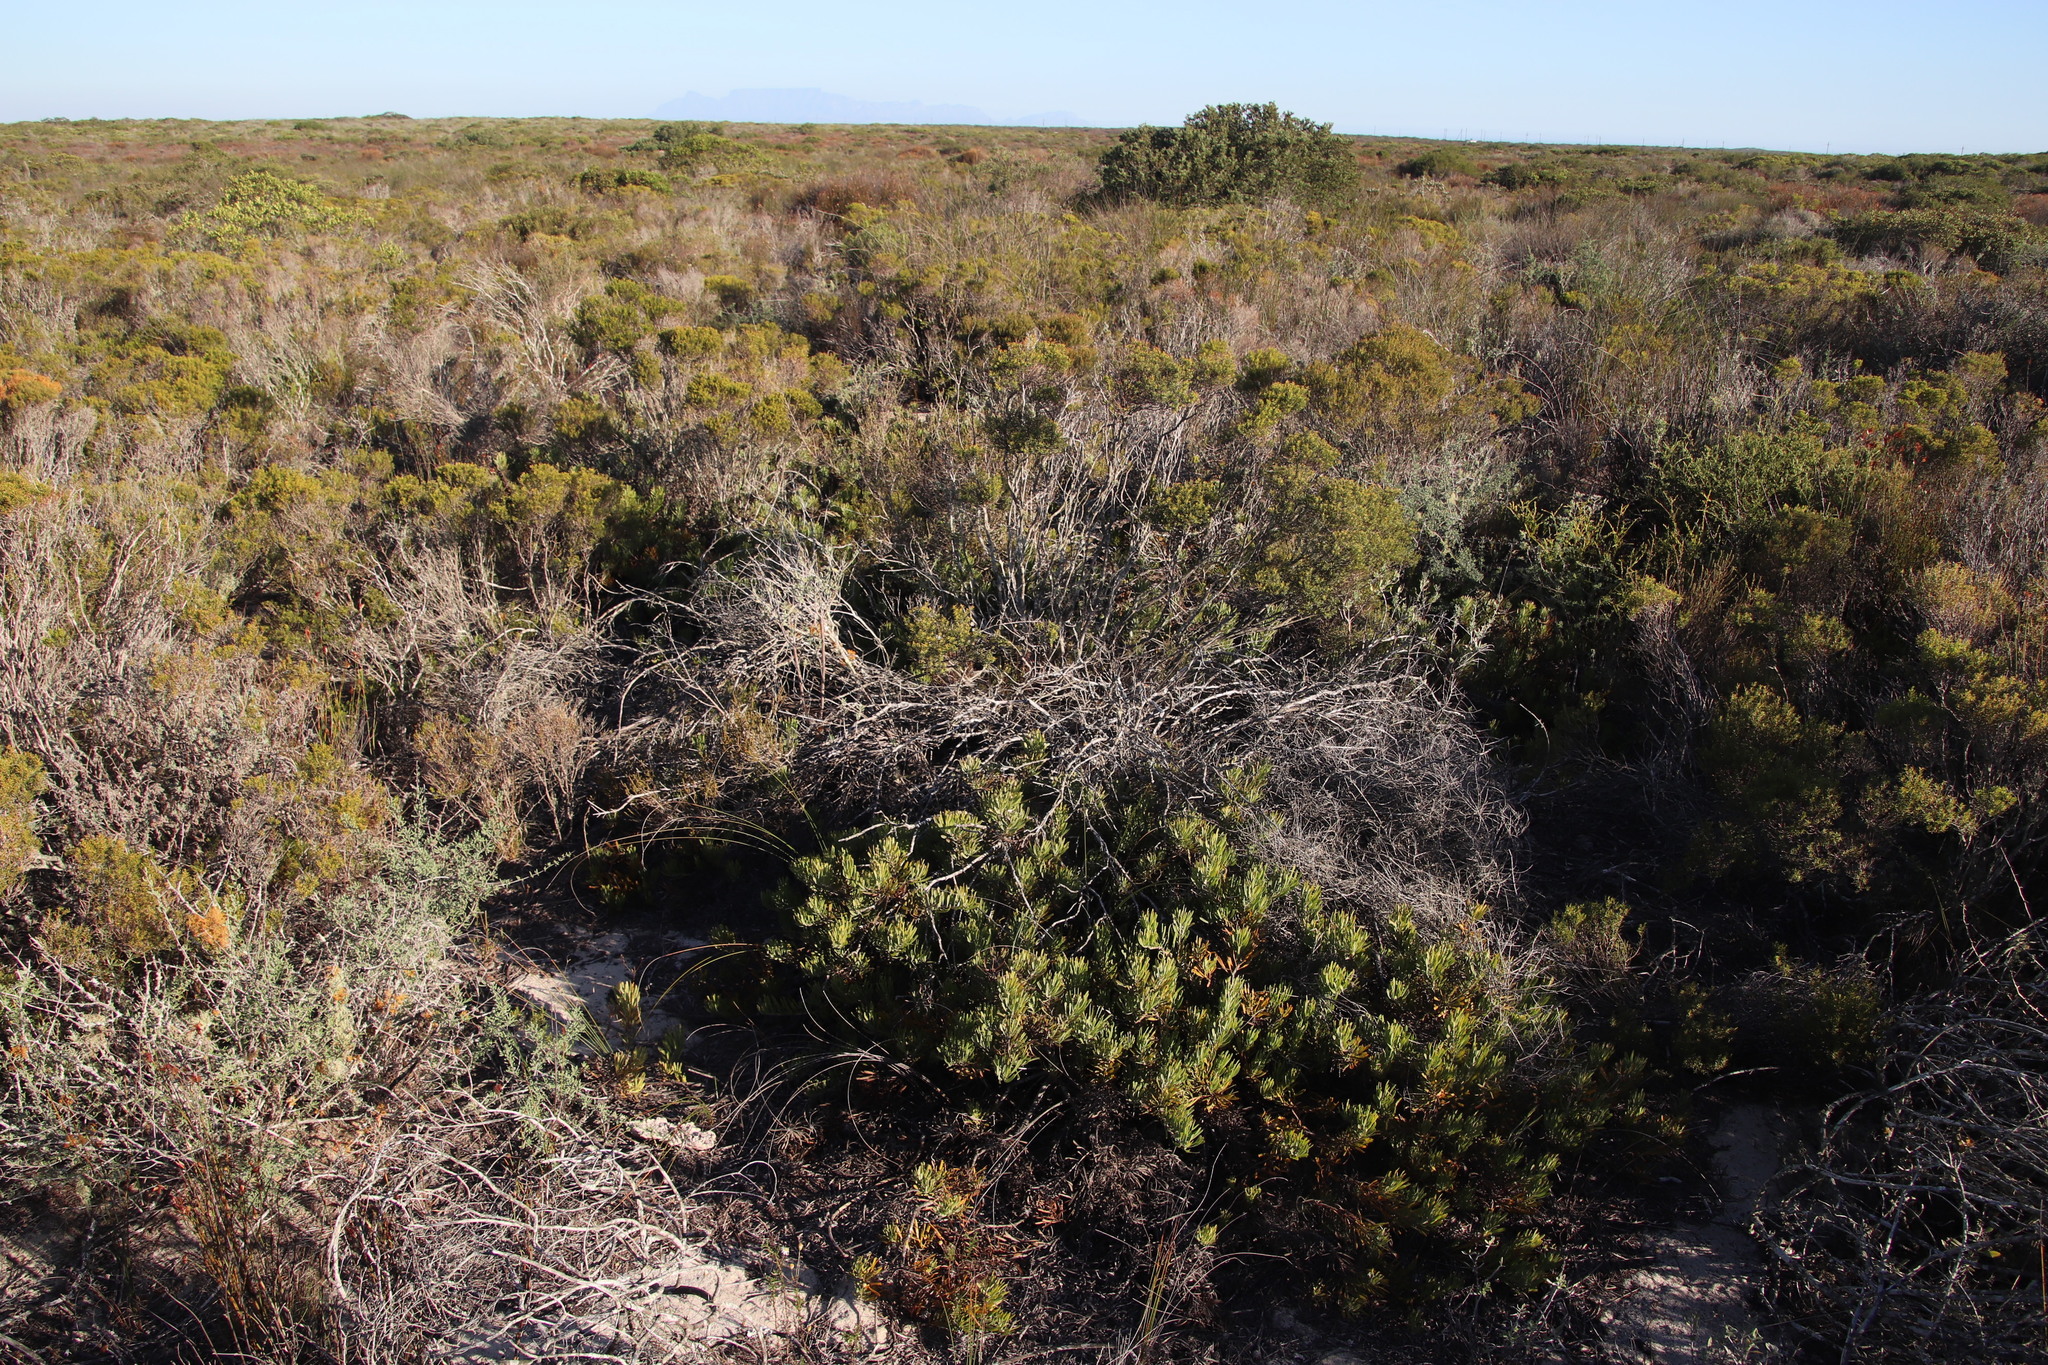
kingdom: Plantae
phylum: Tracheophyta
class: Magnoliopsida
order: Proteales
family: Proteaceae
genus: Leucospermum
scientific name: Leucospermum tomentosum
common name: Saldanha pincushion
